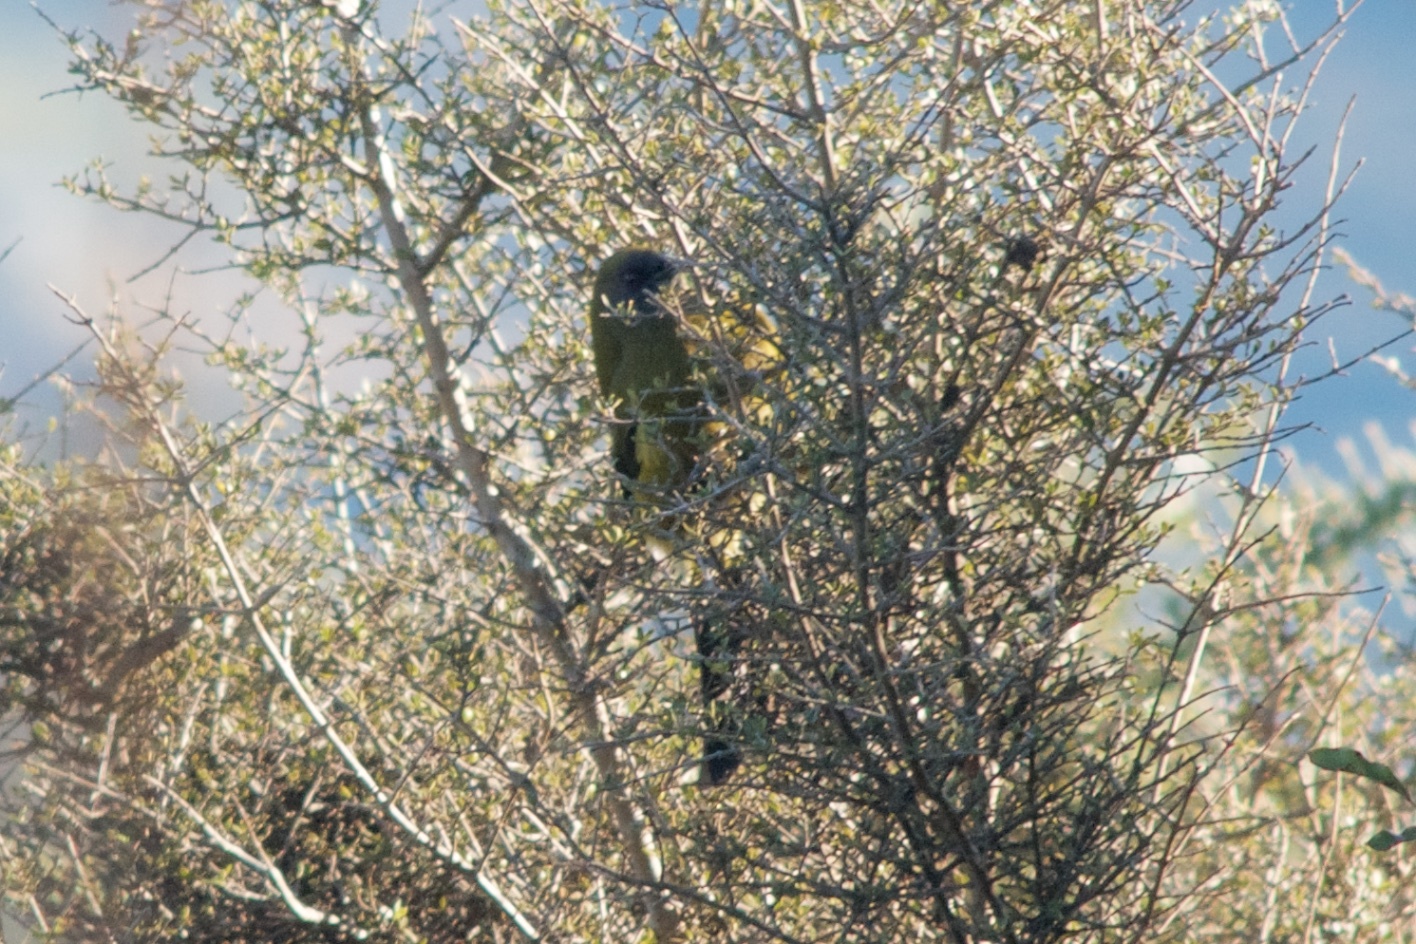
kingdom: Animalia
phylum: Chordata
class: Aves
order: Passeriformes
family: Meliphagidae
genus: Anthornis
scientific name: Anthornis melanura
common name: New zealand bellbird
